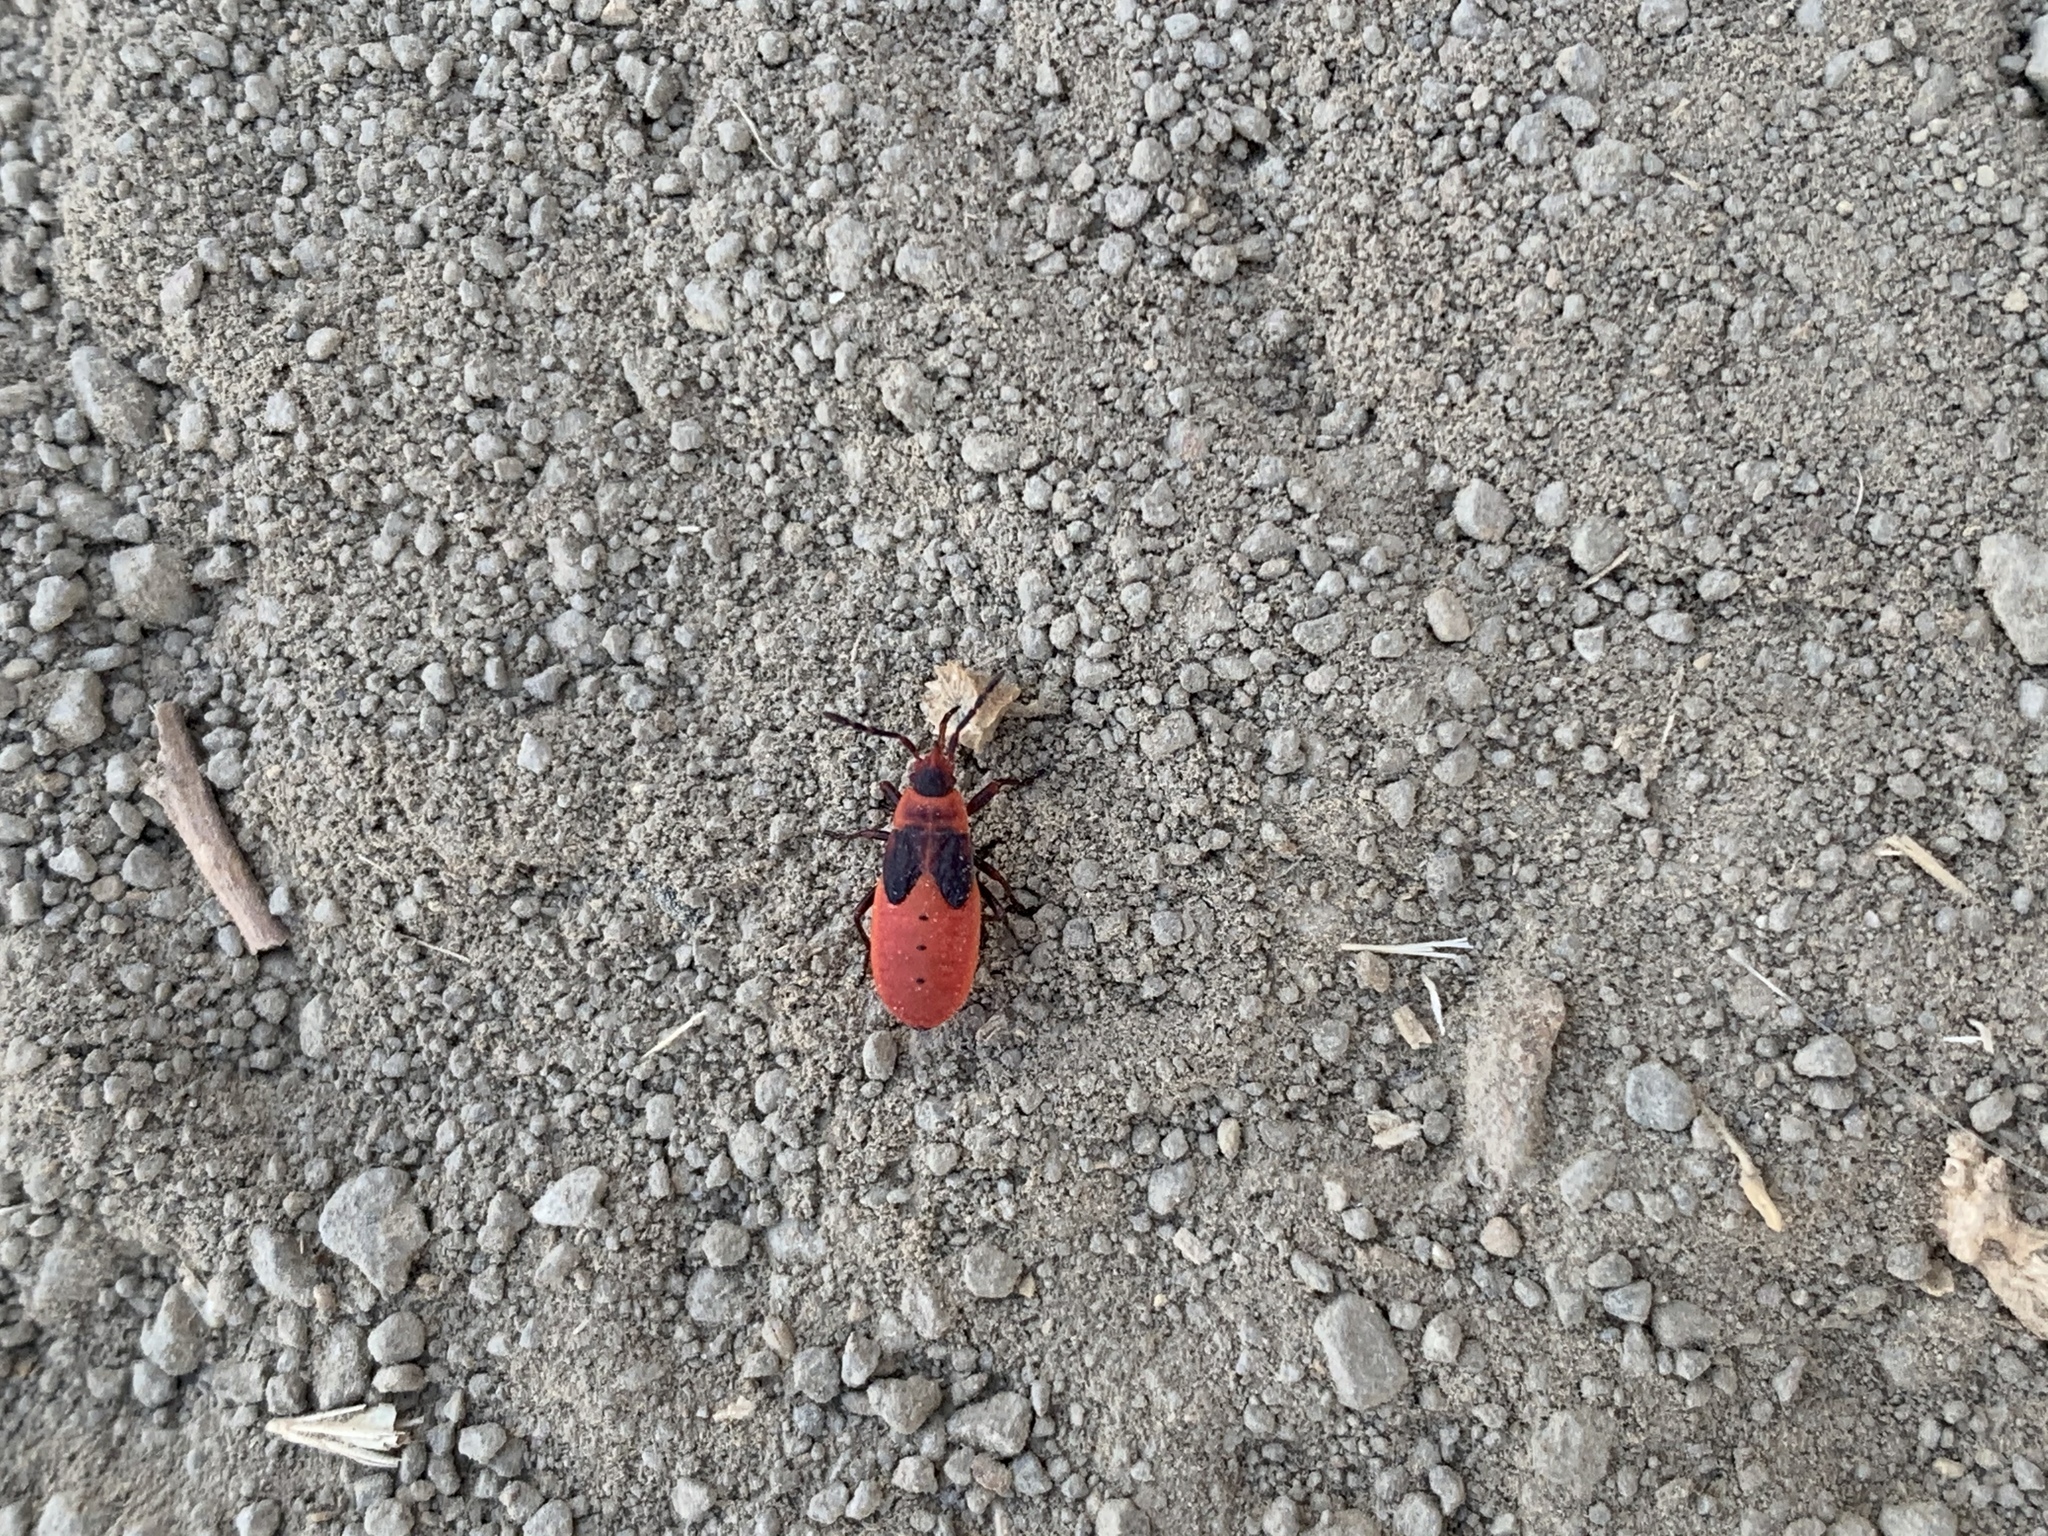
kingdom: Animalia
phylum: Arthropoda
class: Insecta
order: Hemiptera
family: Pyrrhocoridae
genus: Scantius
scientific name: Scantius aegyptius
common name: Red bug
